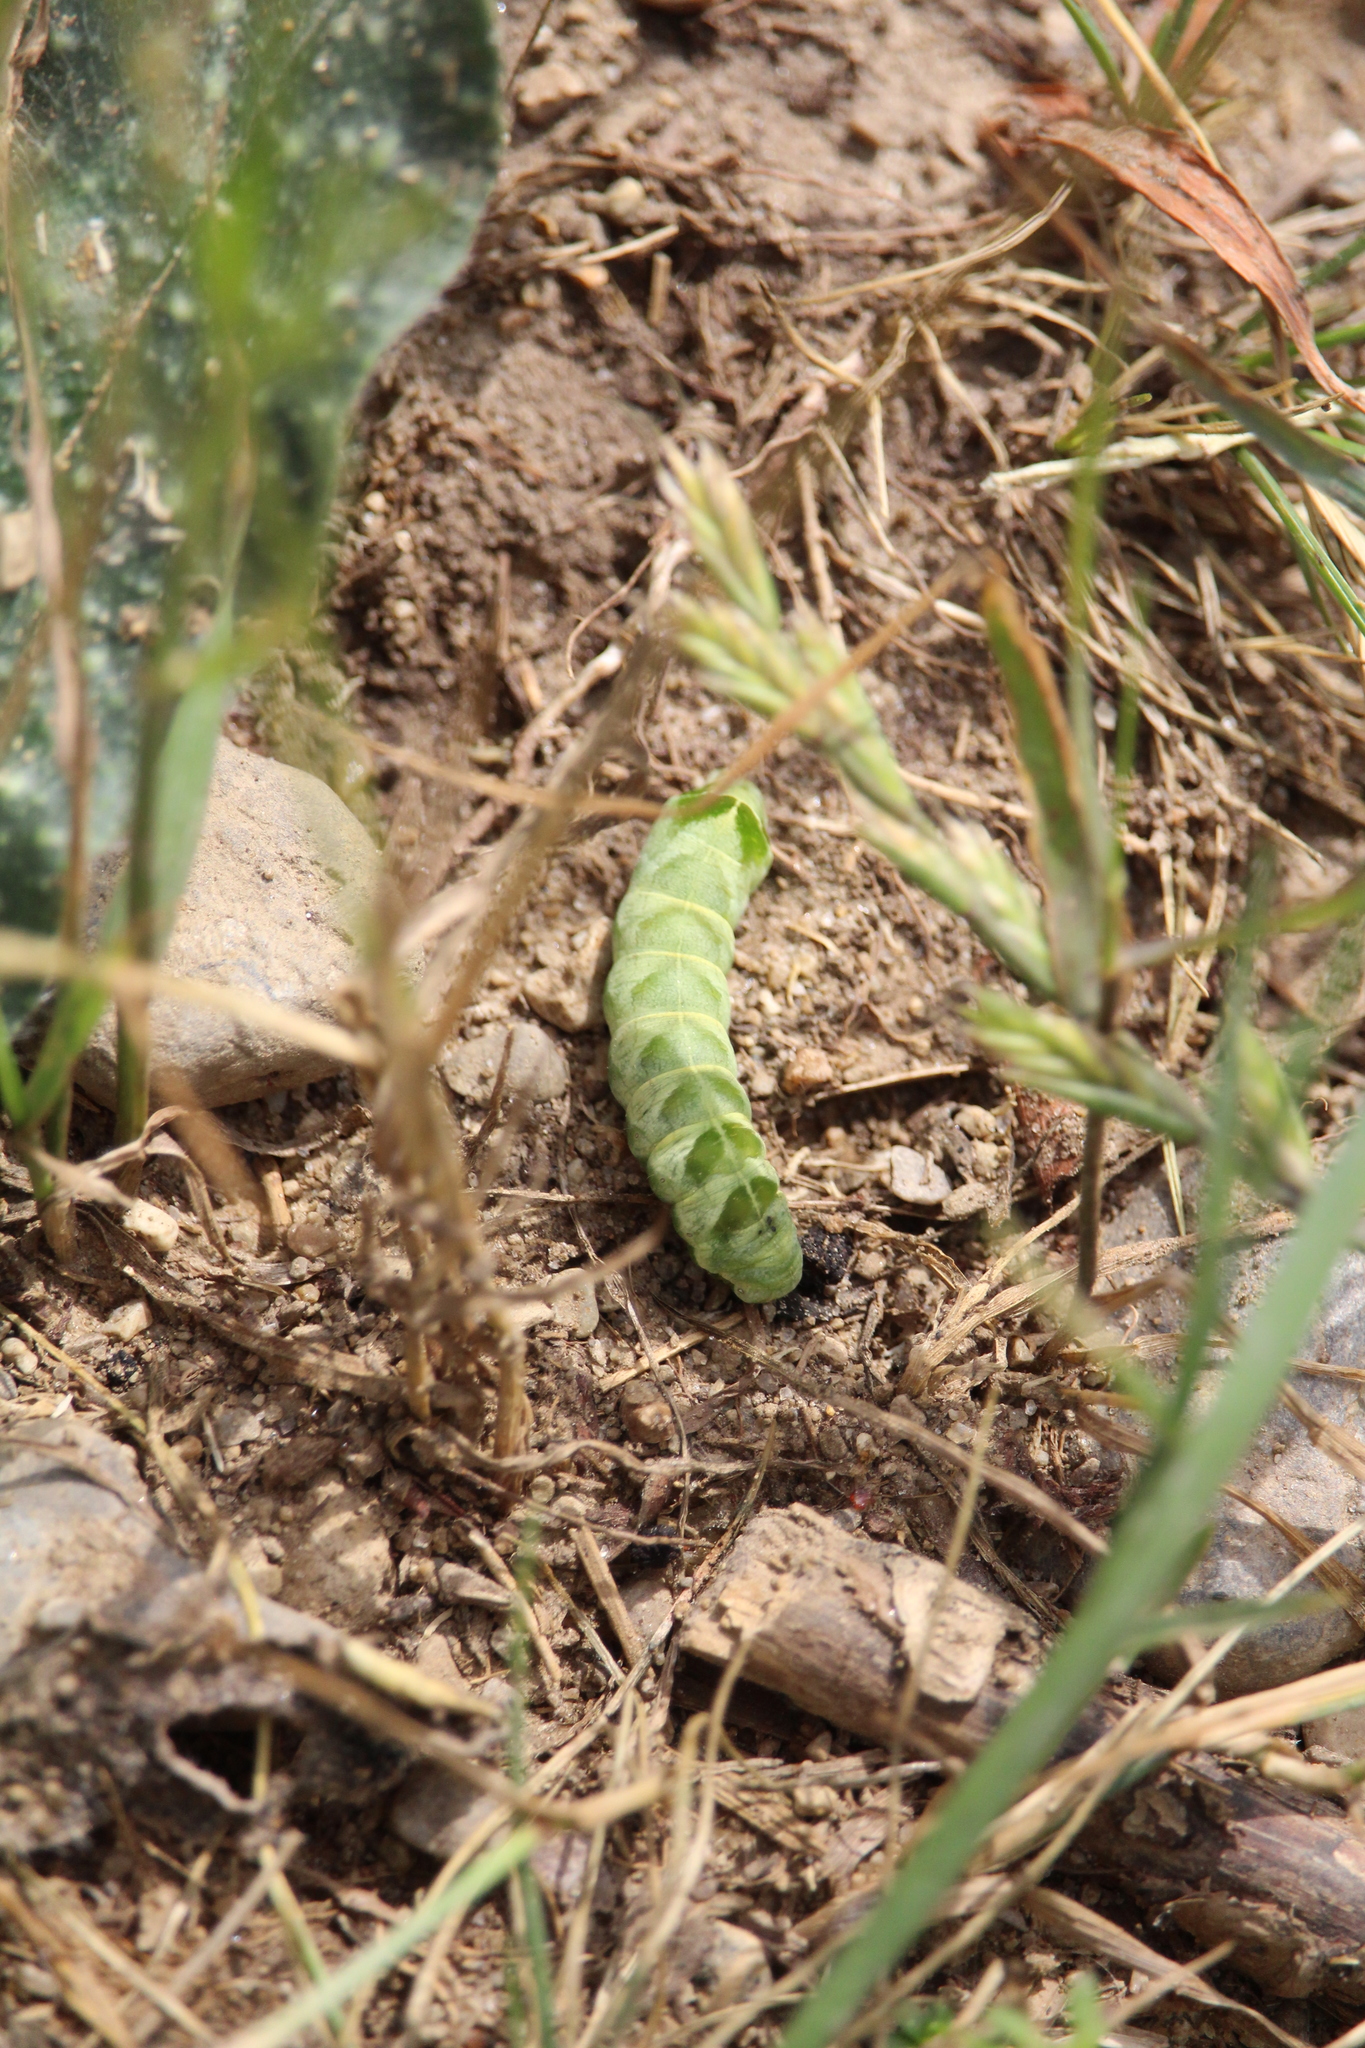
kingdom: Animalia
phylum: Arthropoda
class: Insecta
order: Lepidoptera
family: Noctuidae
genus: Melanchra
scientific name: Melanchra adjuncta
